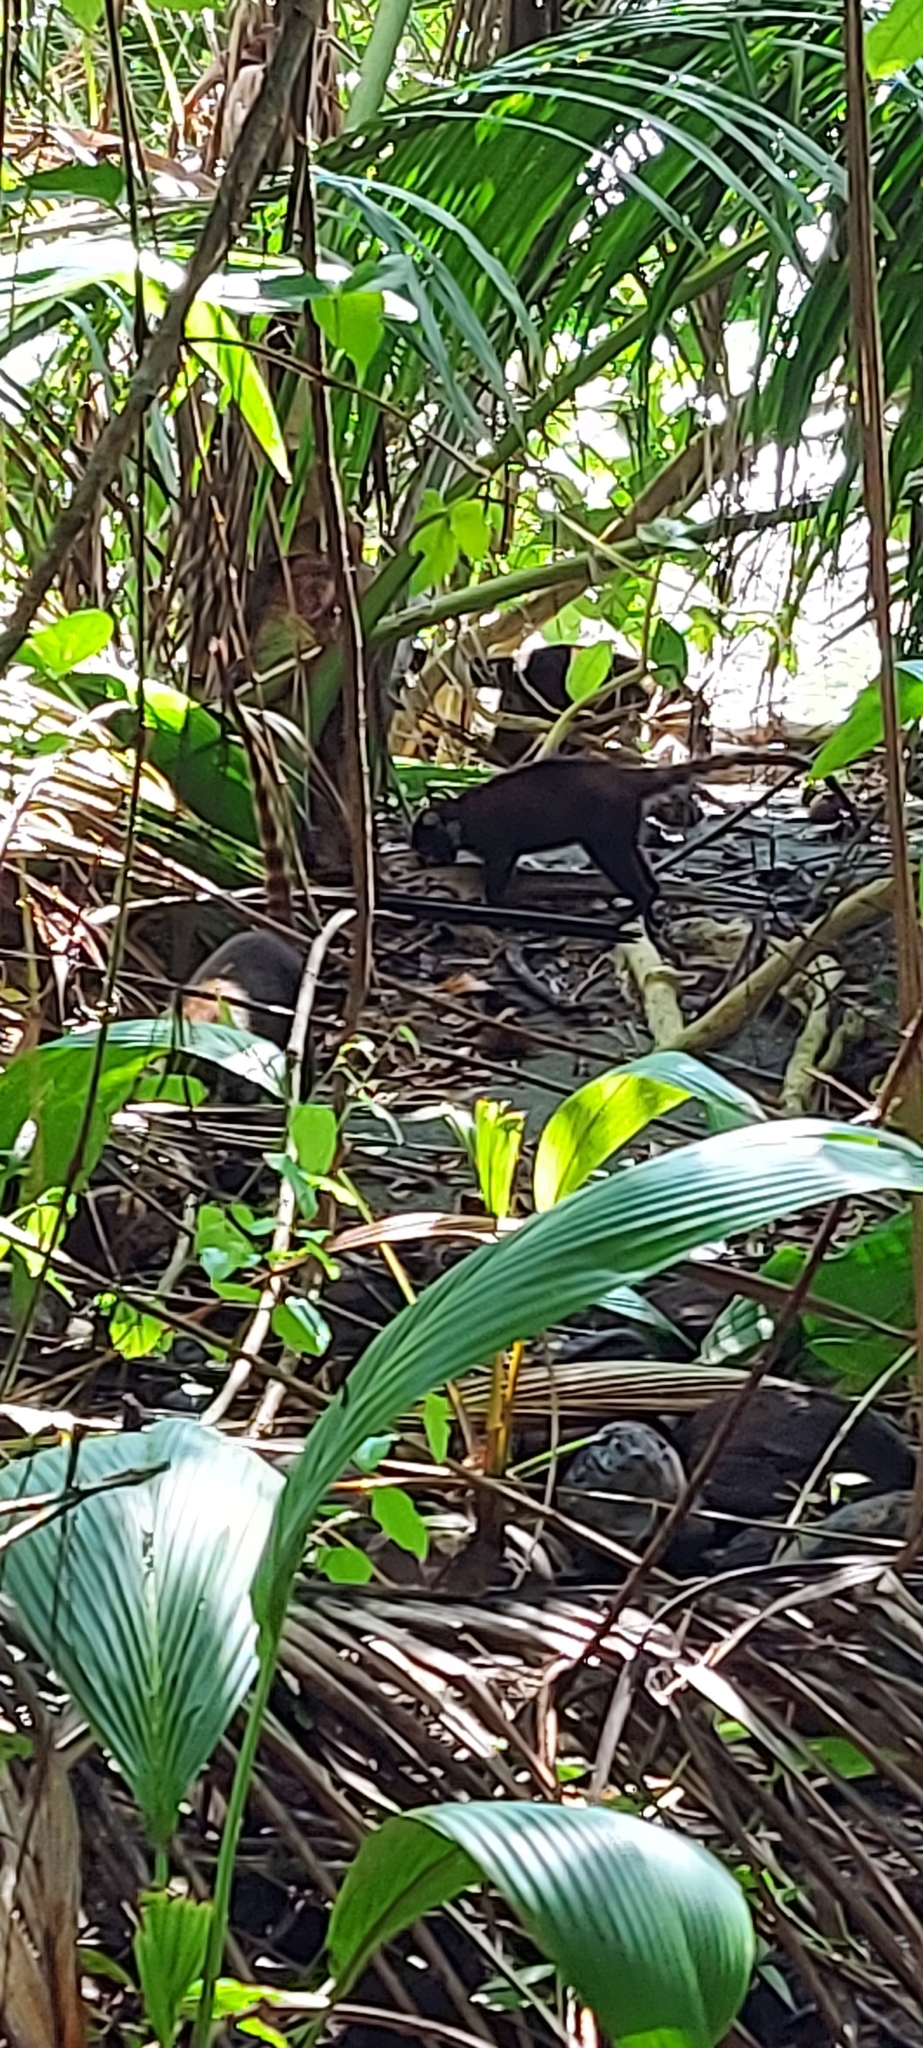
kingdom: Animalia
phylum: Chordata
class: Mammalia
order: Carnivora
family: Procyonidae
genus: Nasua
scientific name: Nasua narica
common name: White-nosed coati
